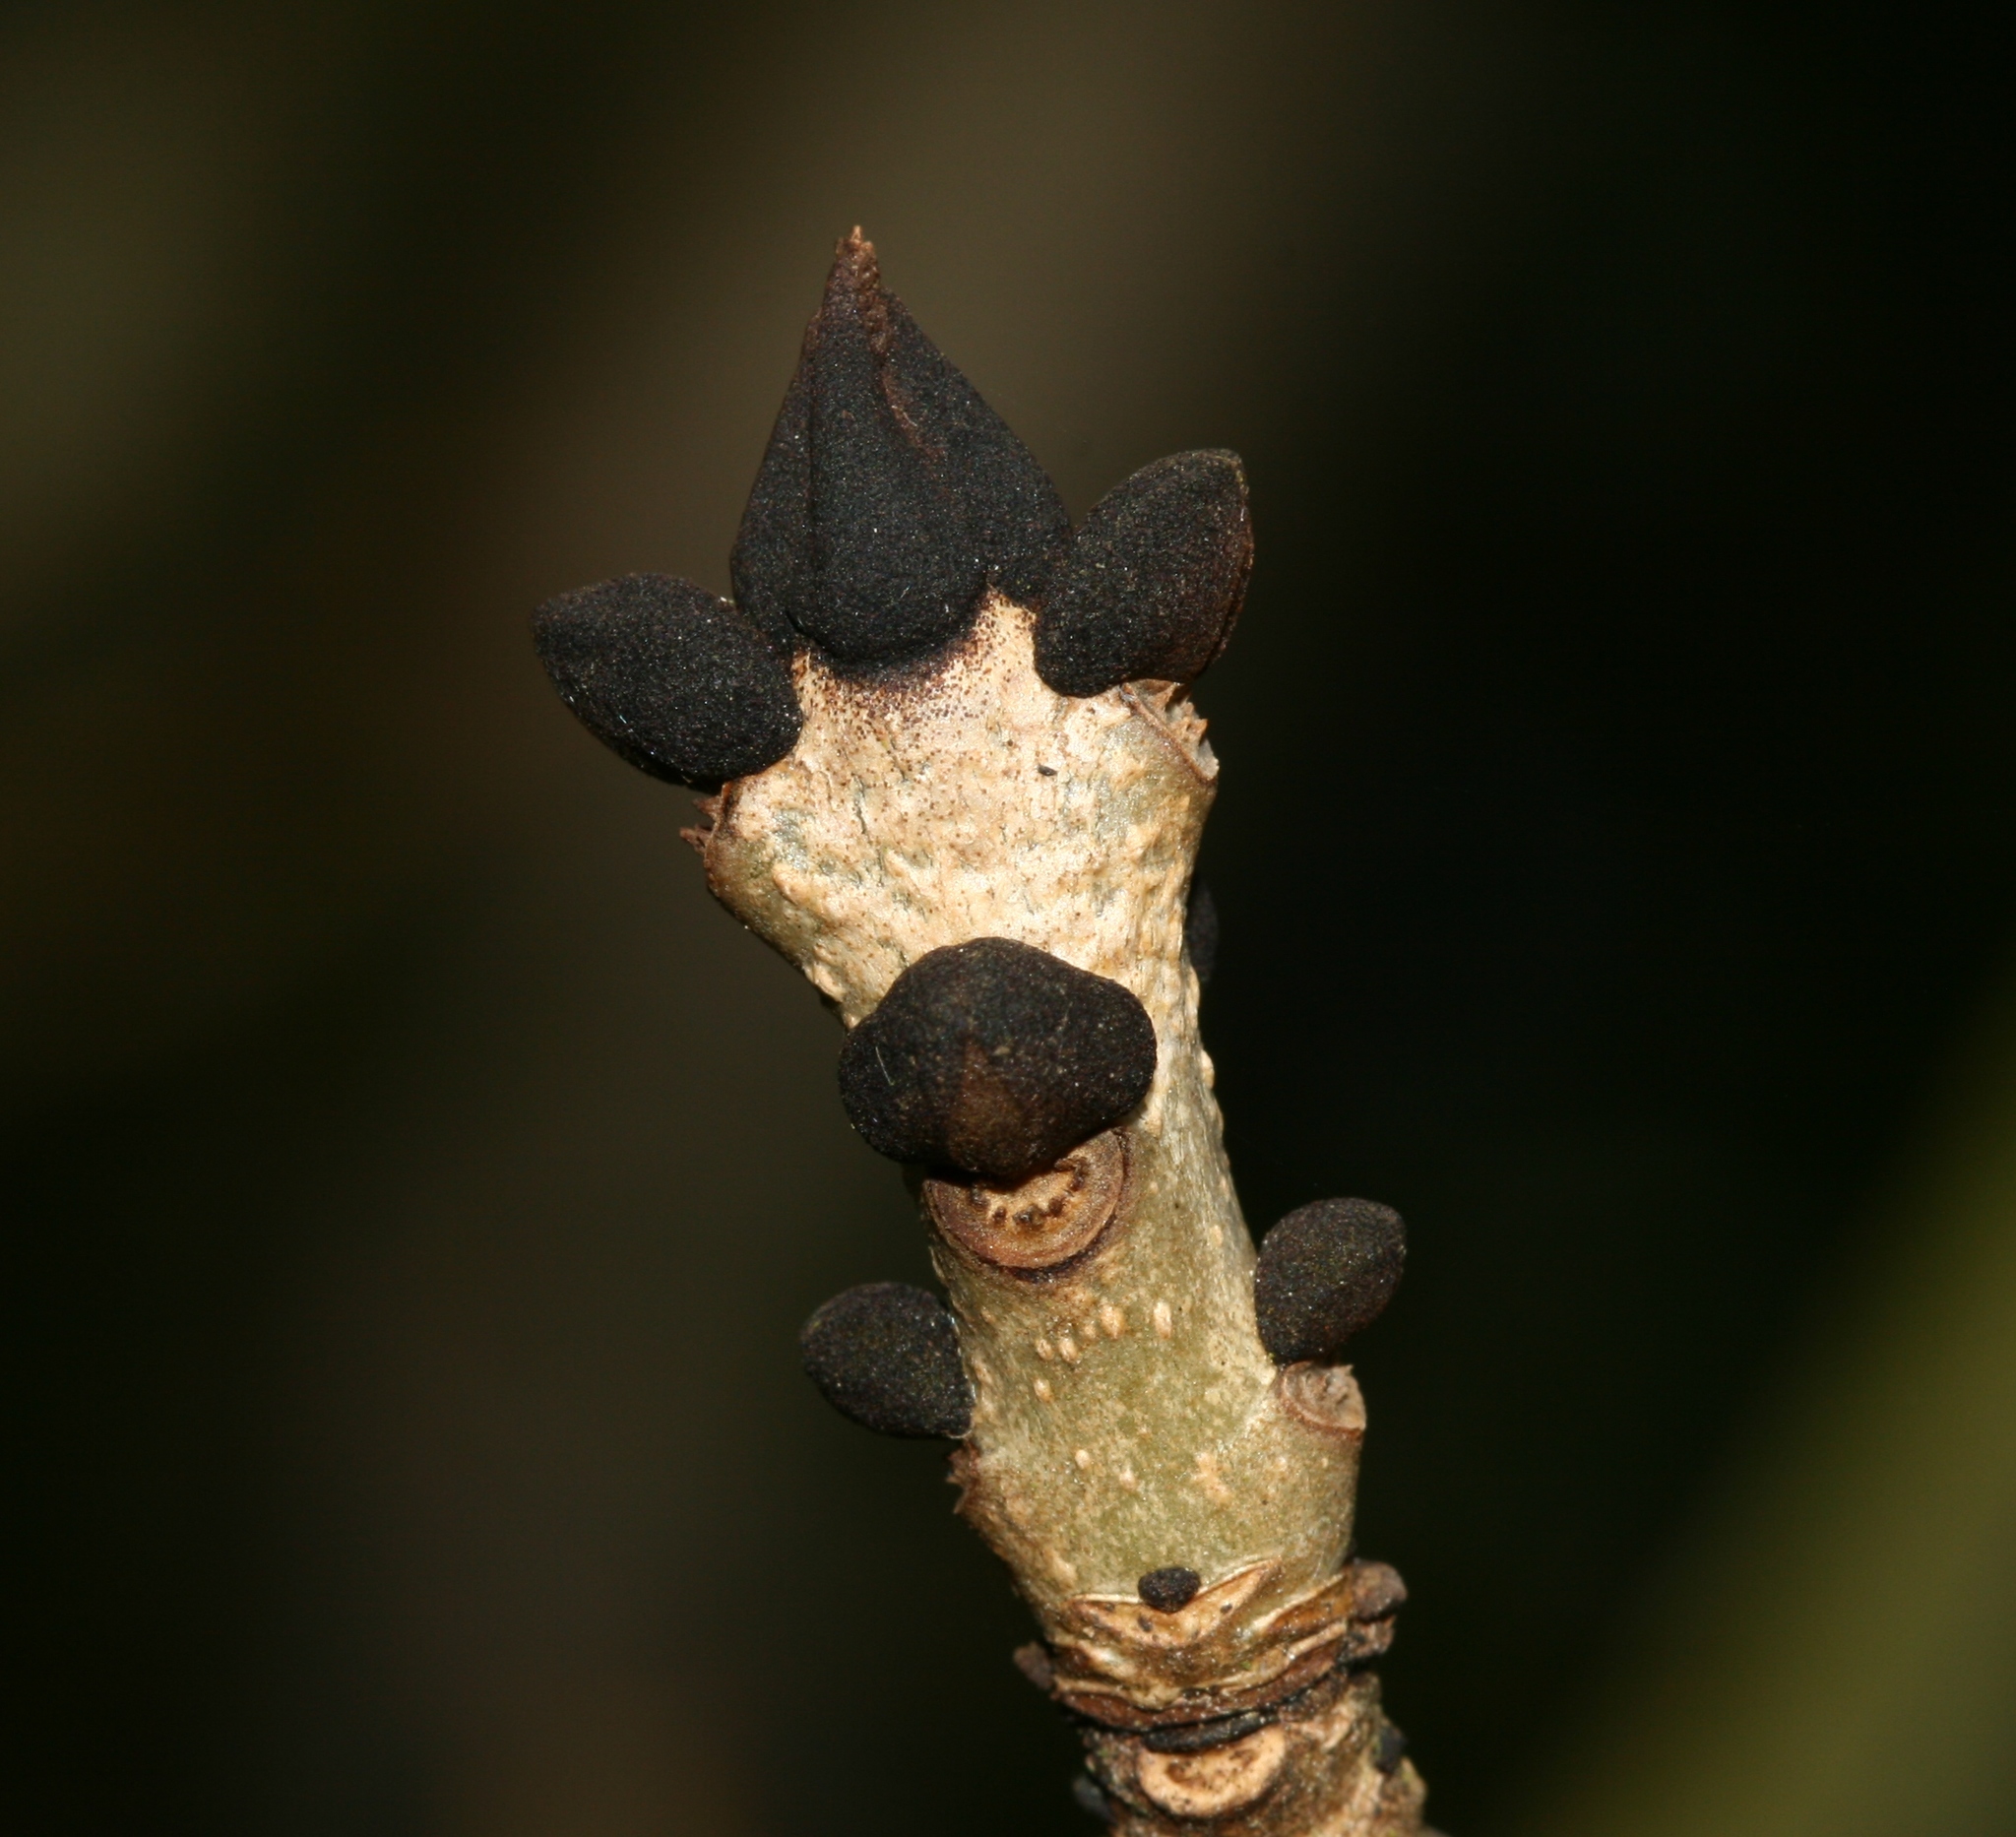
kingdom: Plantae
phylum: Tracheophyta
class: Magnoliopsida
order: Lamiales
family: Oleaceae
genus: Fraxinus
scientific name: Fraxinus excelsior
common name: European ash
